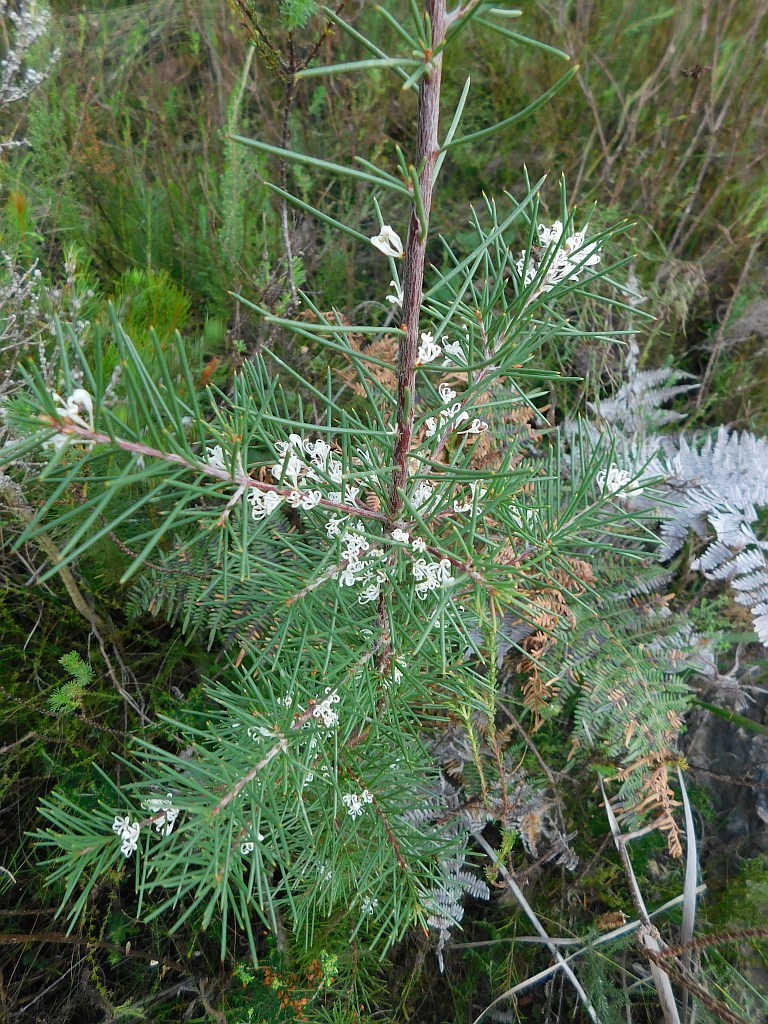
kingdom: Plantae
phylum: Tracheophyta
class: Magnoliopsida
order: Proteales
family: Proteaceae
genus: Hakea
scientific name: Hakea sericea
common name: Needle bush
